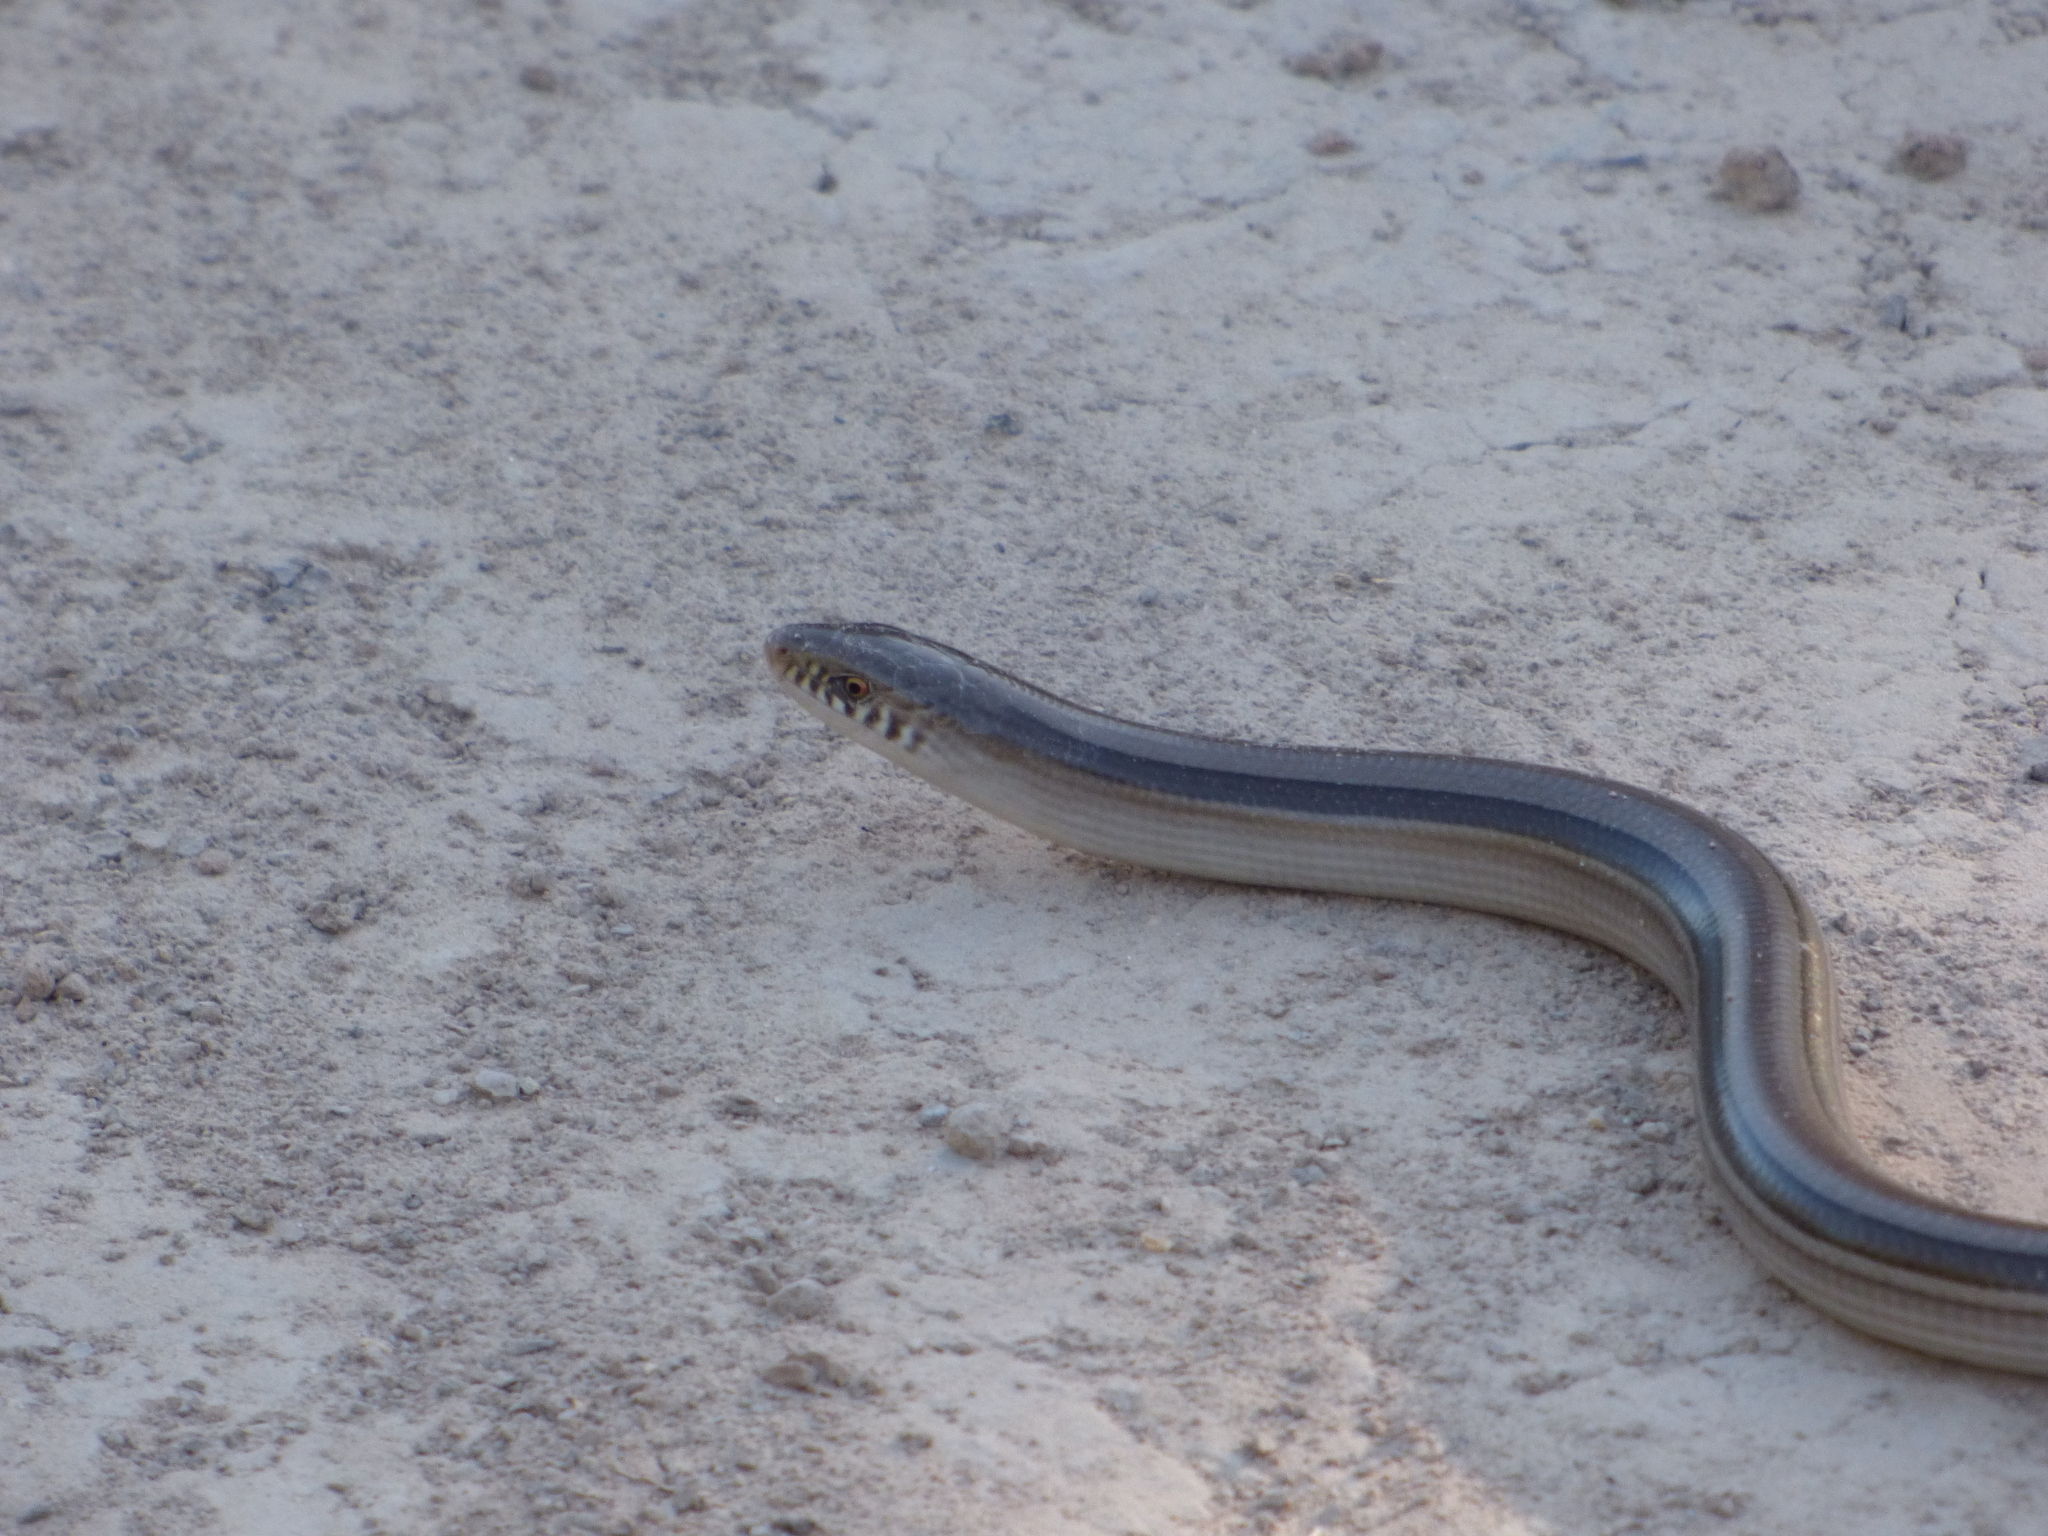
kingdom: Animalia
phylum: Chordata
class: Squamata
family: Diploglossidae
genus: Ophiodes
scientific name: Ophiodes intermedius
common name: Middle worm lizard
